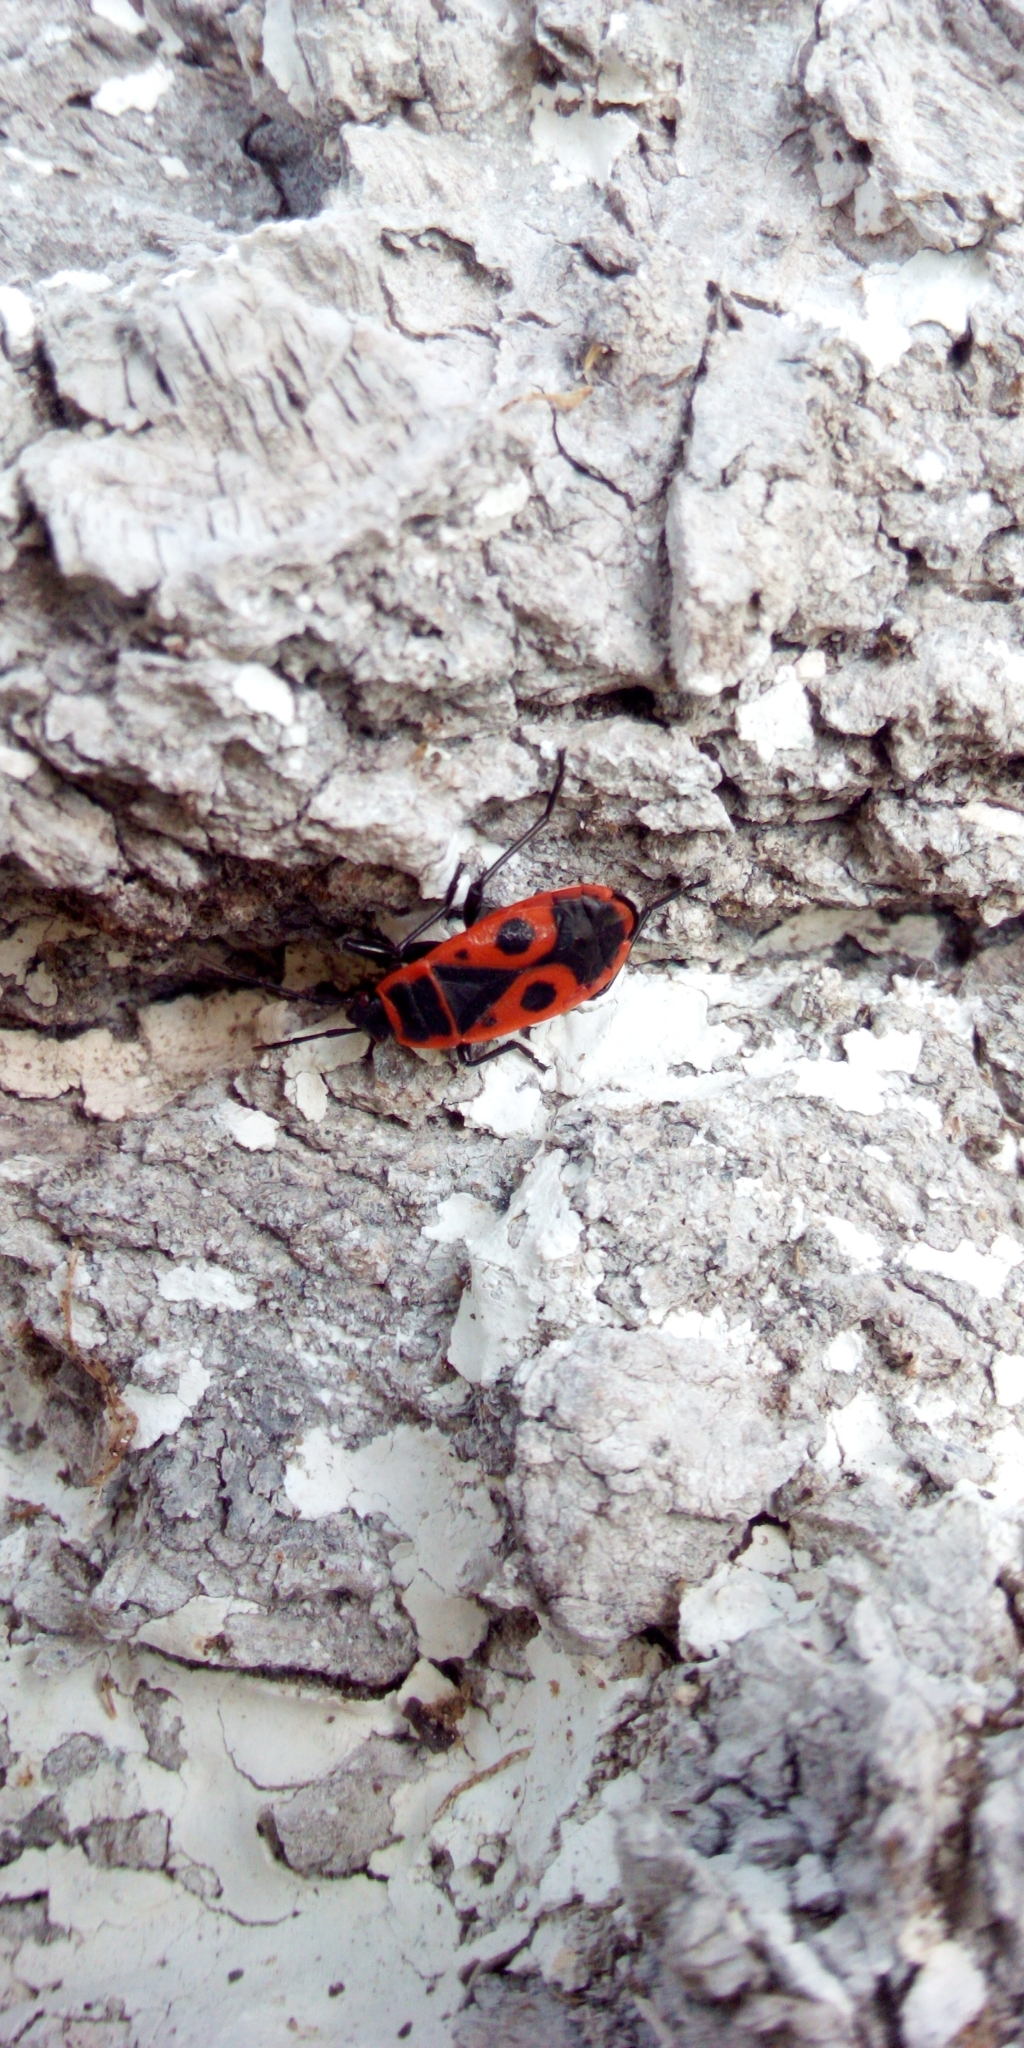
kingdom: Animalia
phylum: Arthropoda
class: Insecta
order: Hemiptera
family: Pyrrhocoridae
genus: Pyrrhocoris
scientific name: Pyrrhocoris apterus
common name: Firebug
